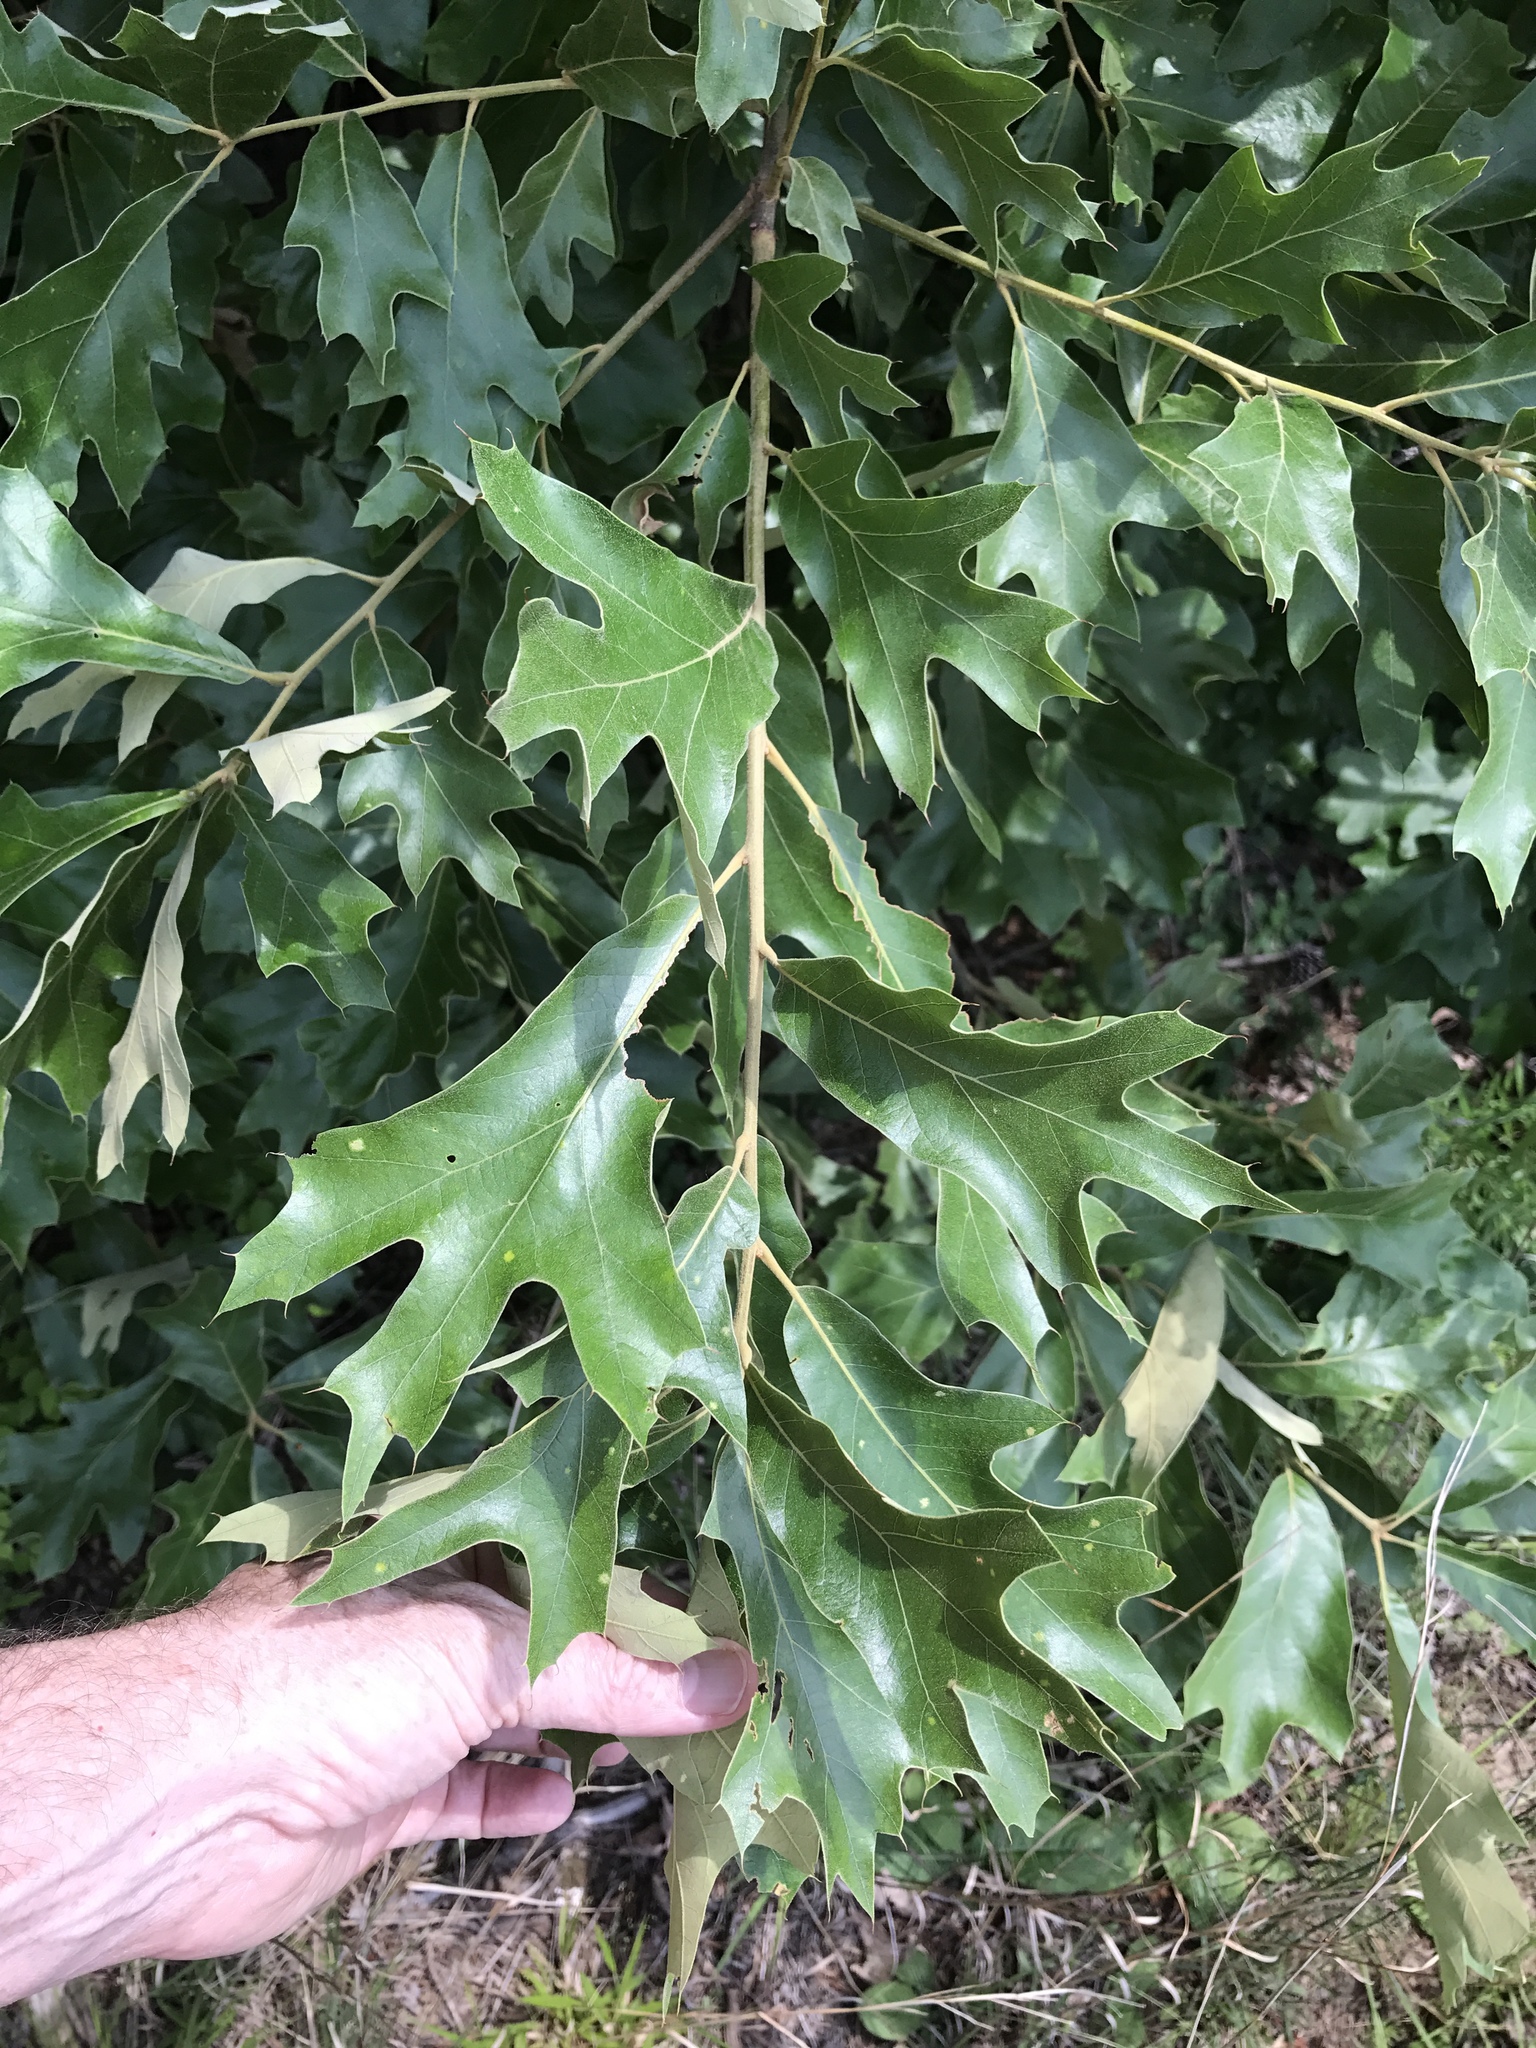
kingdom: Plantae
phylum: Tracheophyta
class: Magnoliopsida
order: Fagales
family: Fagaceae
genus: Quercus
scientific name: Quercus falcata
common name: Southern red oak
